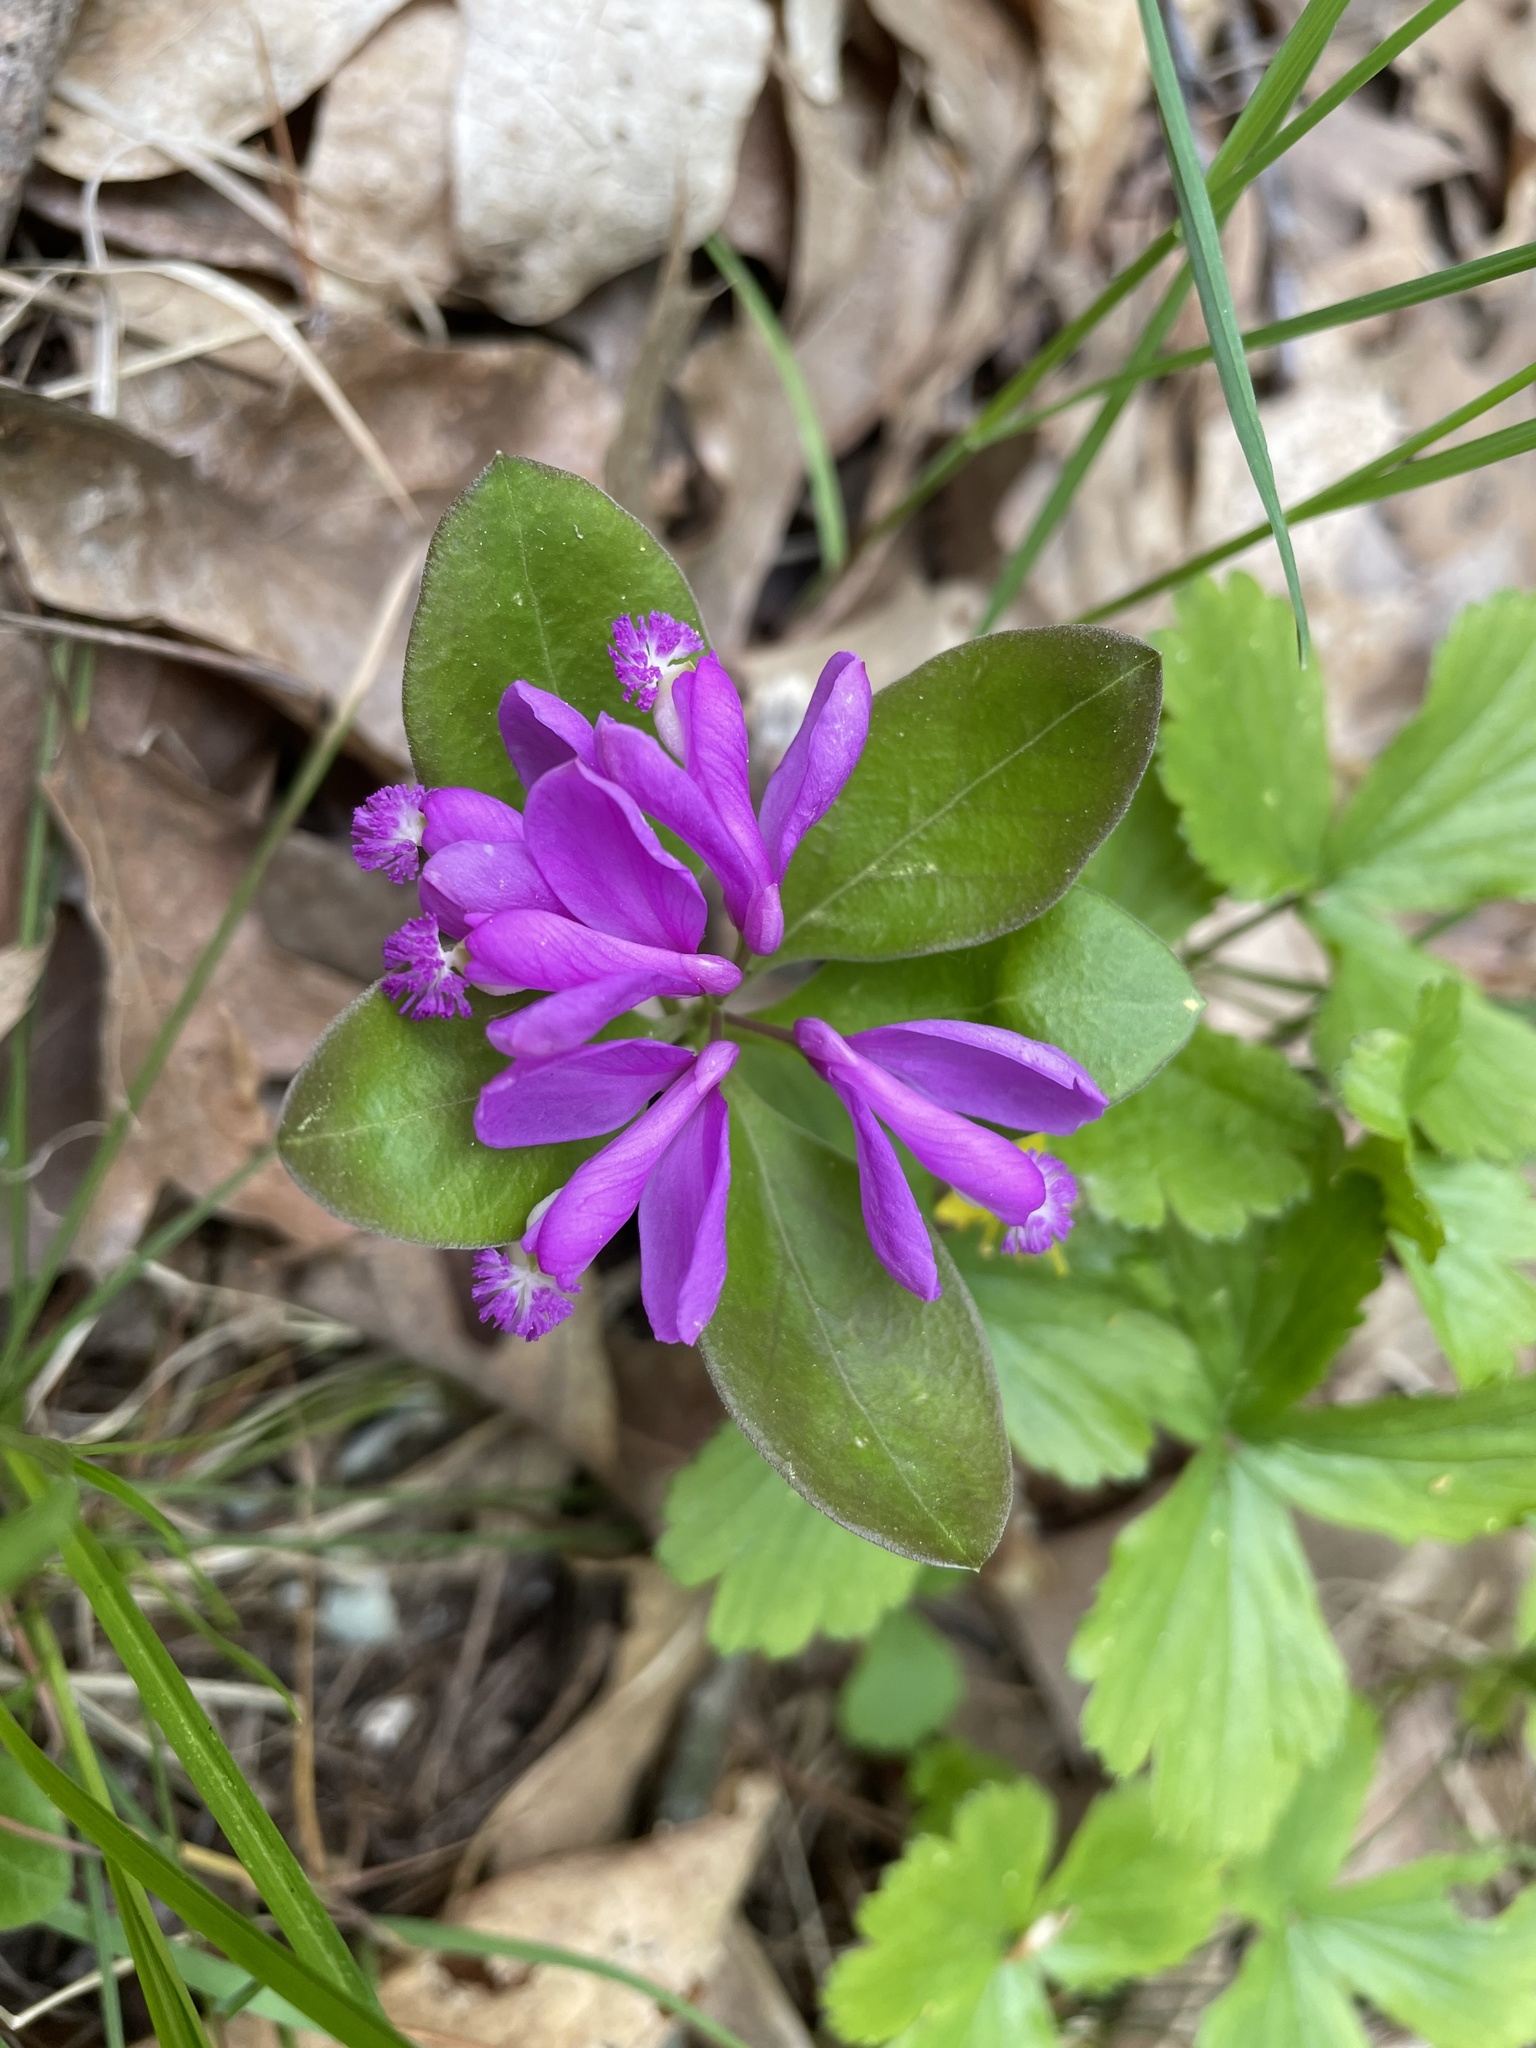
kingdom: Plantae
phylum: Tracheophyta
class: Magnoliopsida
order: Fabales
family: Polygalaceae
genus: Polygaloides
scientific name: Polygaloides paucifolia
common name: Bird-on-the-wing
